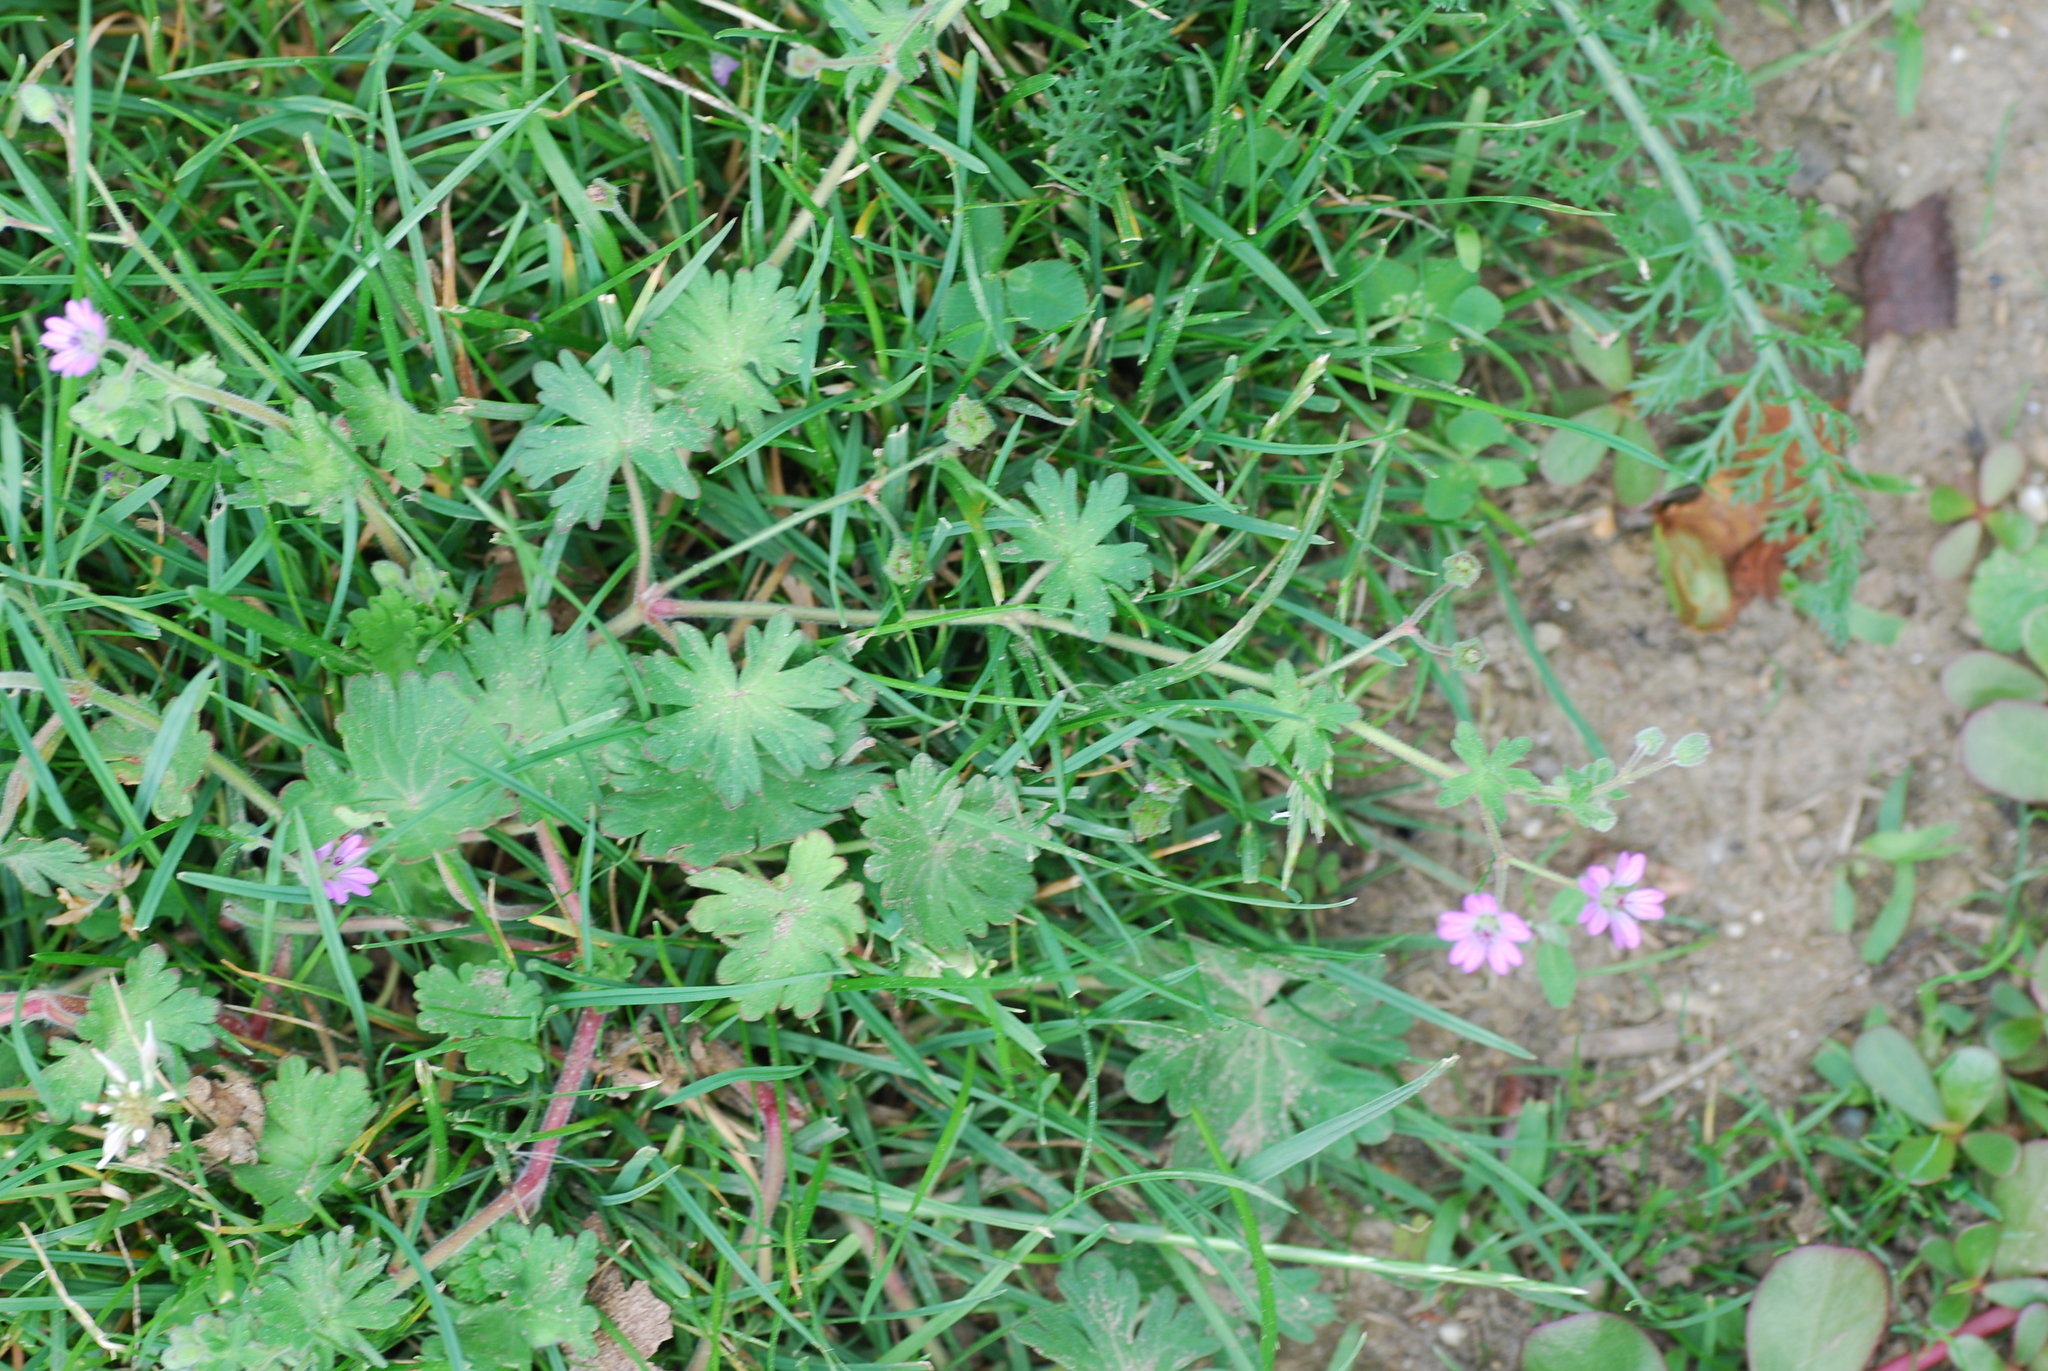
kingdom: Plantae
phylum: Tracheophyta
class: Magnoliopsida
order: Geraniales
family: Geraniaceae
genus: Geranium
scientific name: Geranium molle
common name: Dove's-foot crane's-bill
